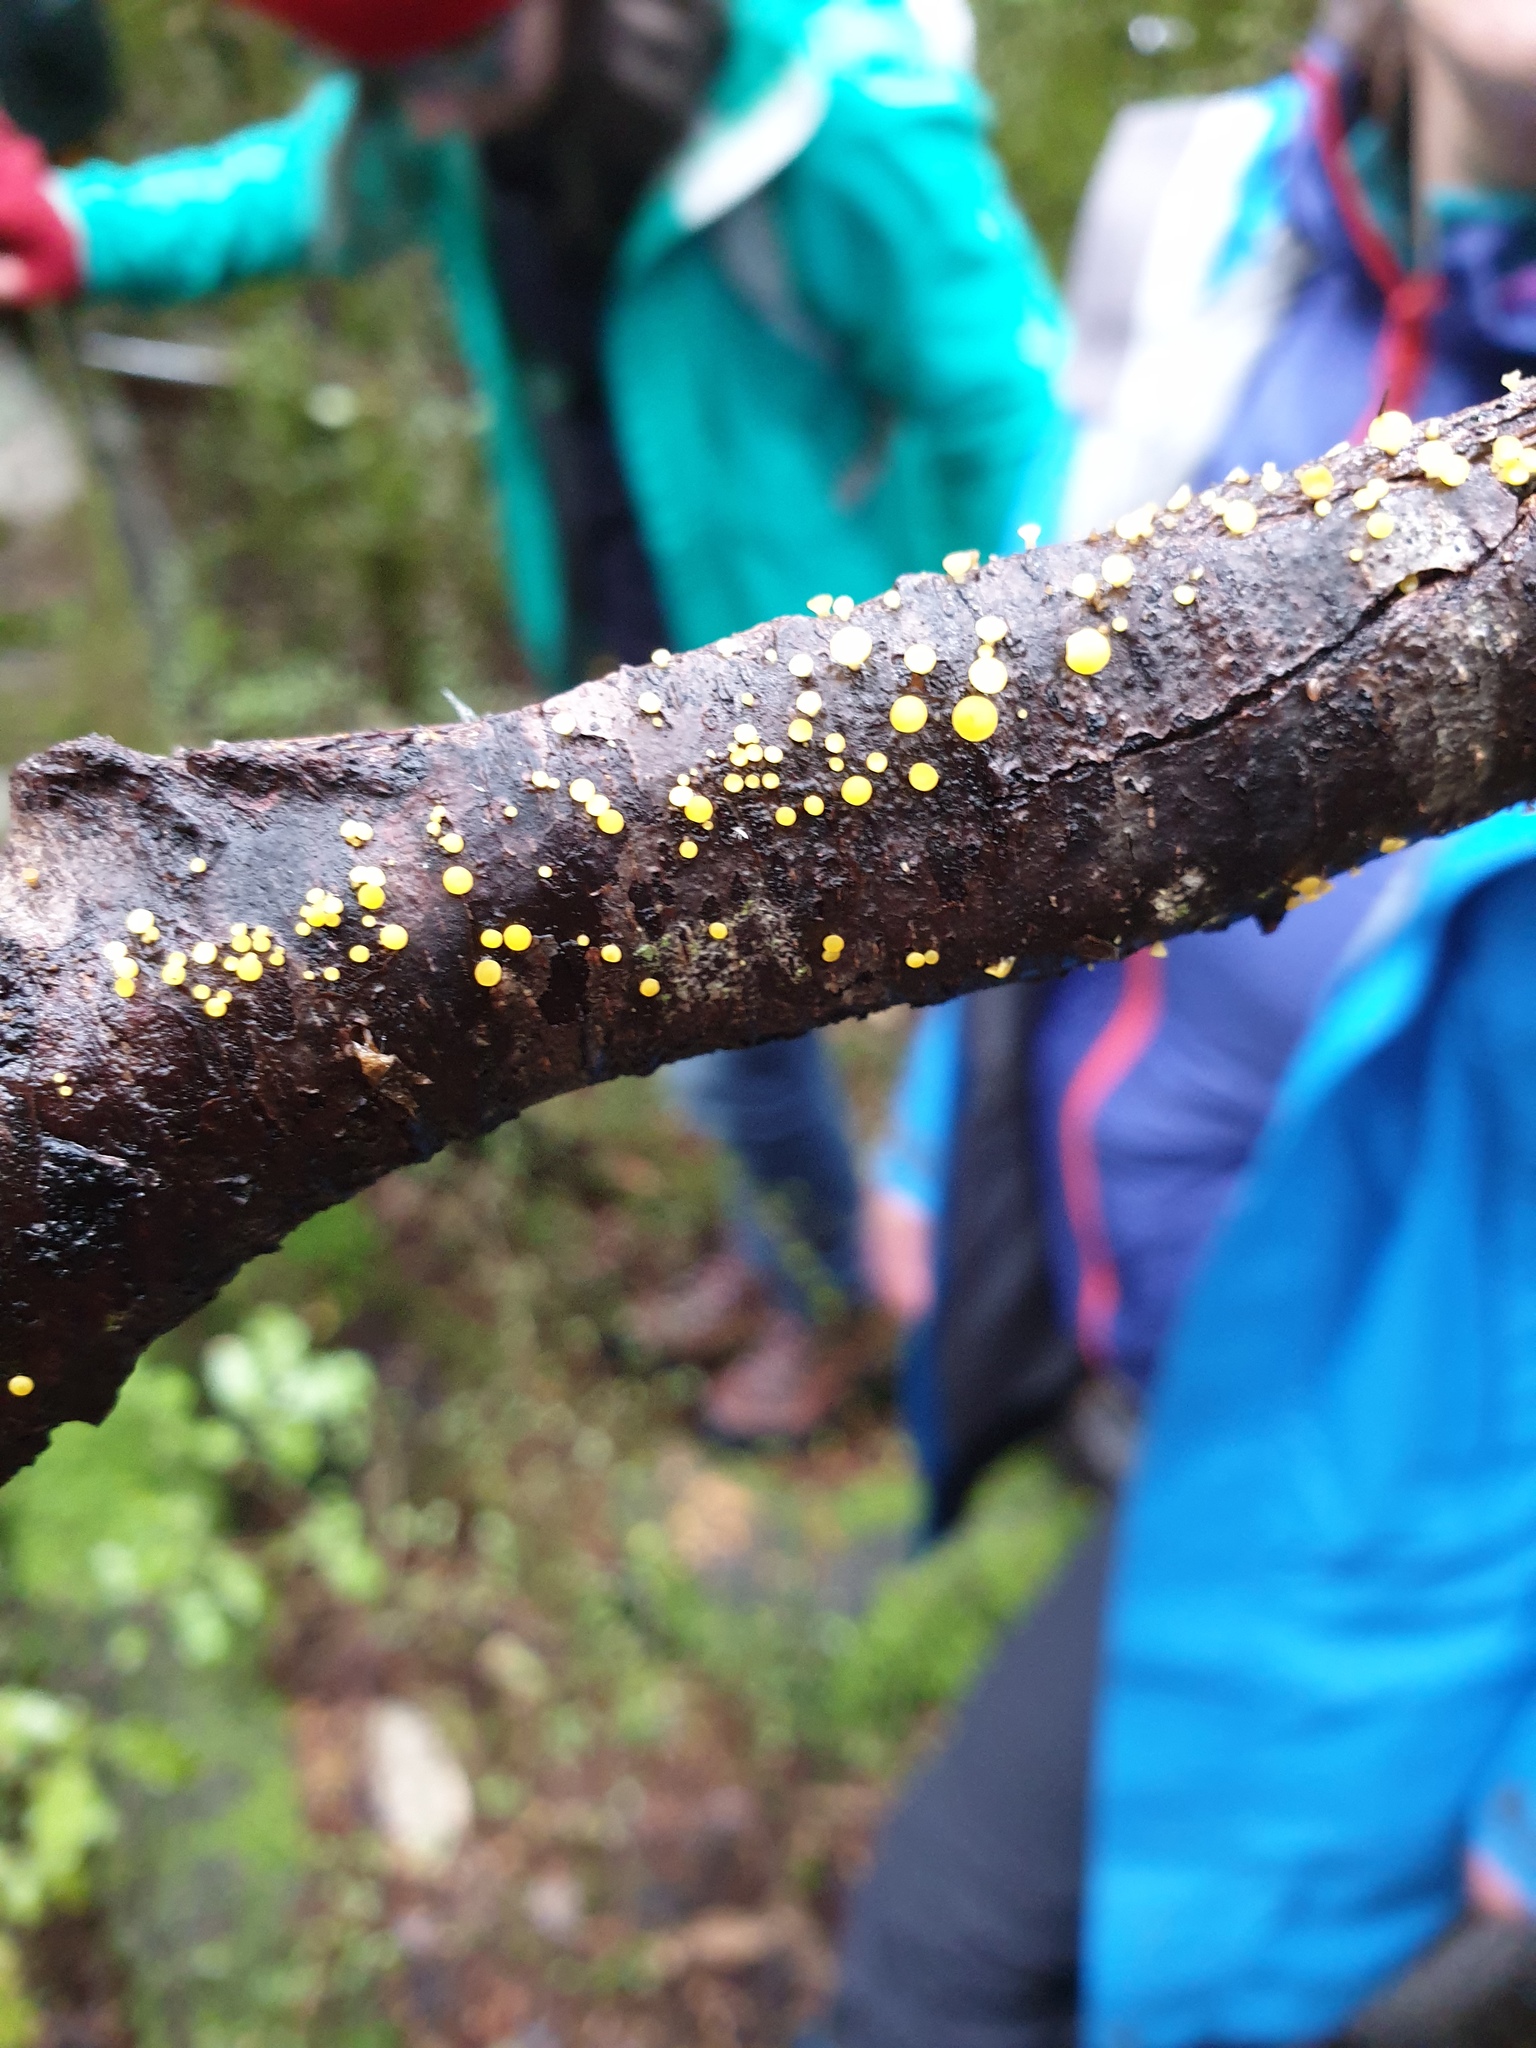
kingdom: Fungi
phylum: Ascomycota
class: Leotiomycetes
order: Helotiales
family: Pezizellaceae
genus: Calycina
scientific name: Calycina citrina
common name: Yellow fairy cups
